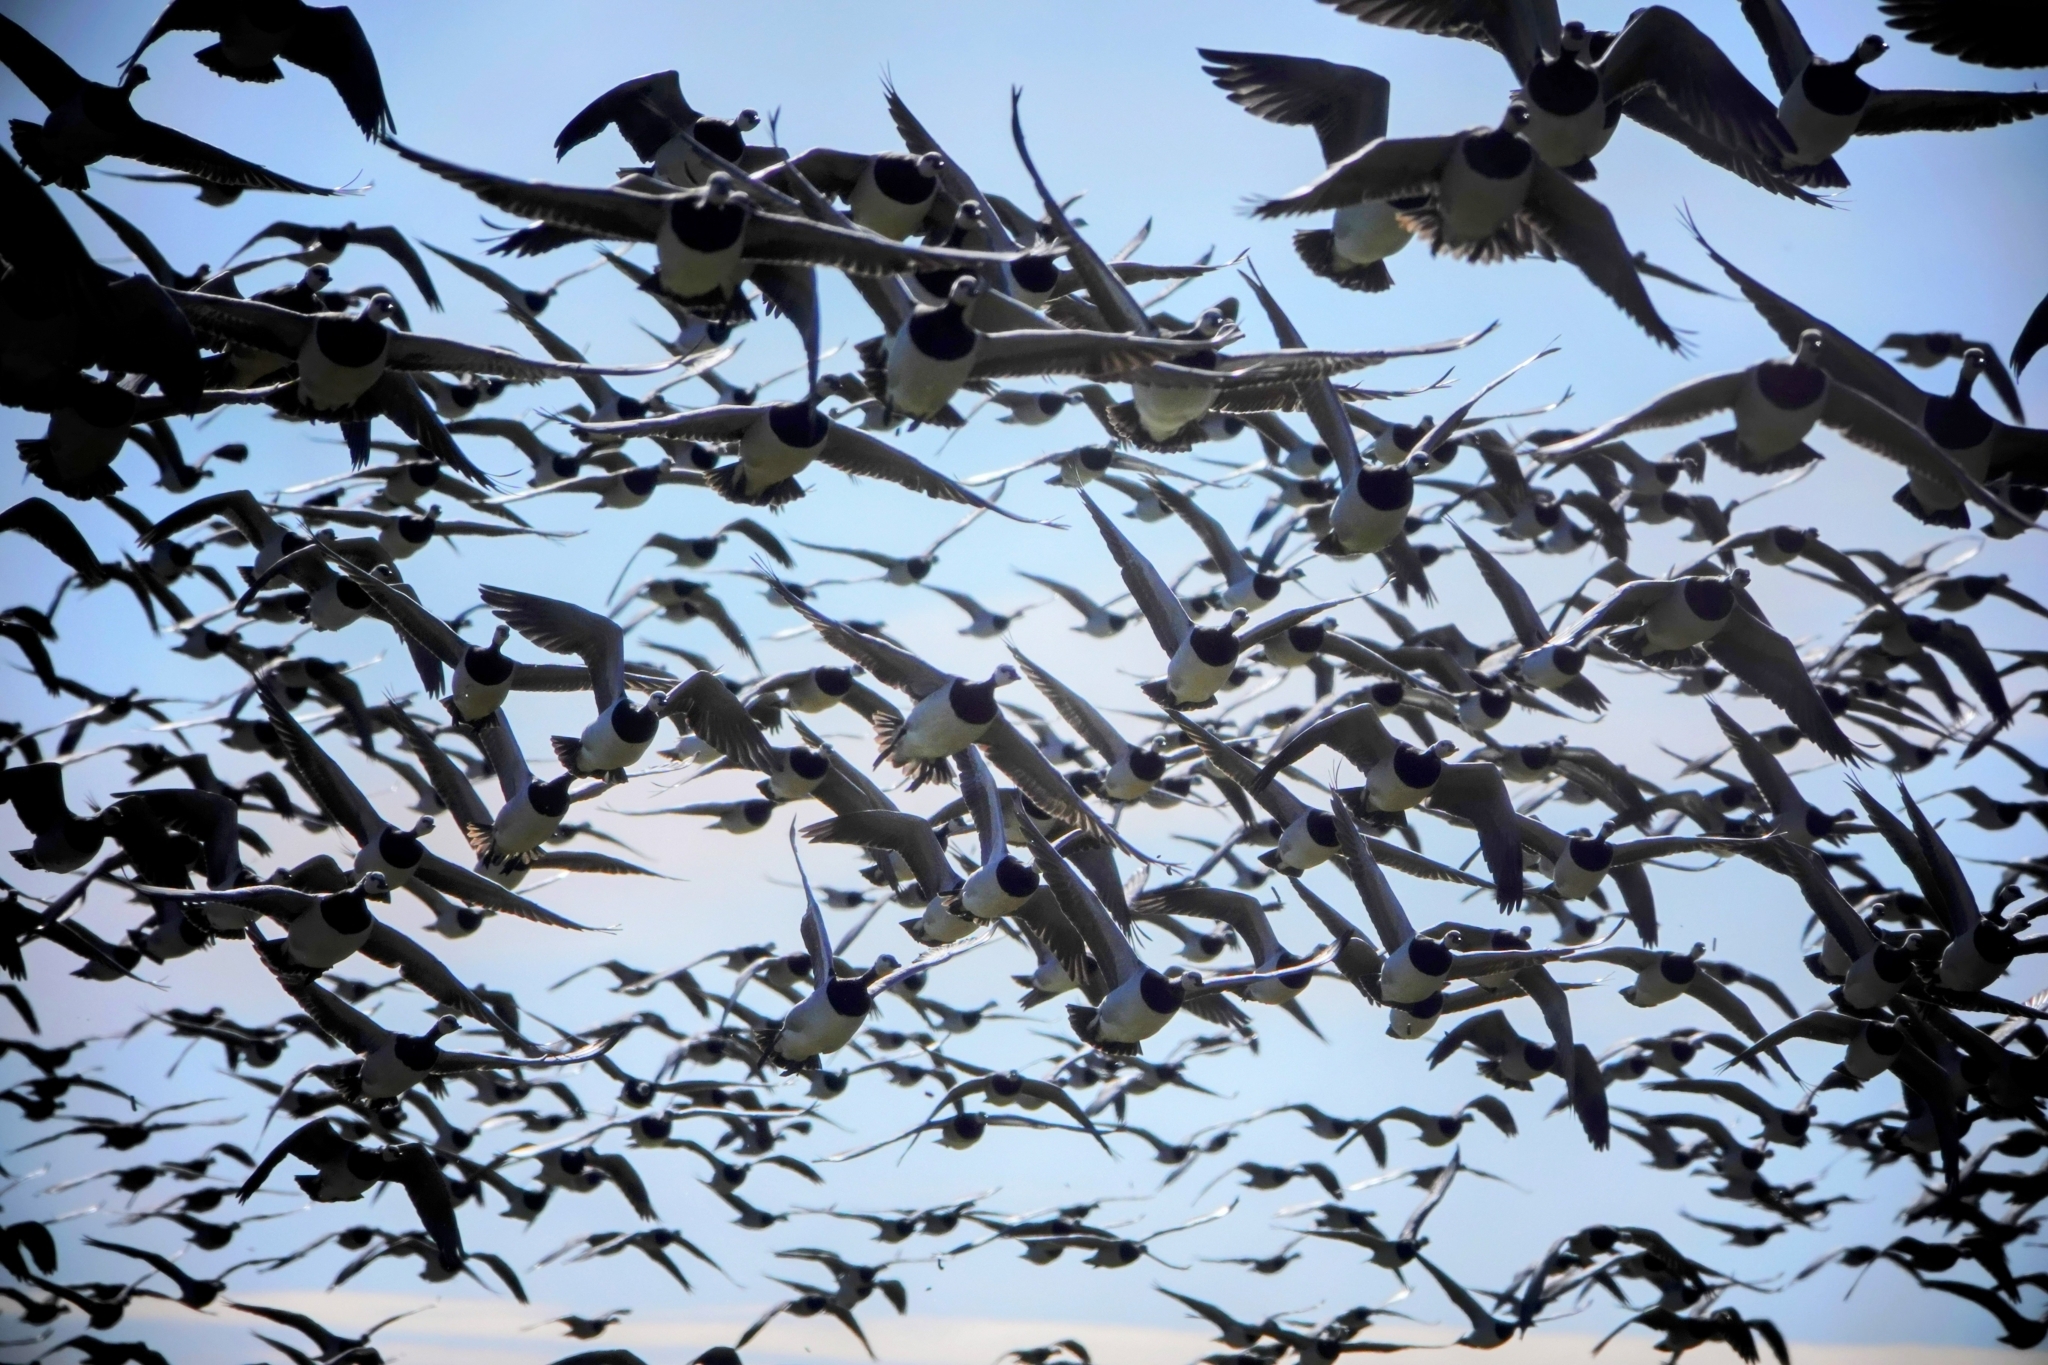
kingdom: Animalia
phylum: Chordata
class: Aves
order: Anseriformes
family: Anatidae
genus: Branta
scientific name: Branta leucopsis
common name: Barnacle goose
